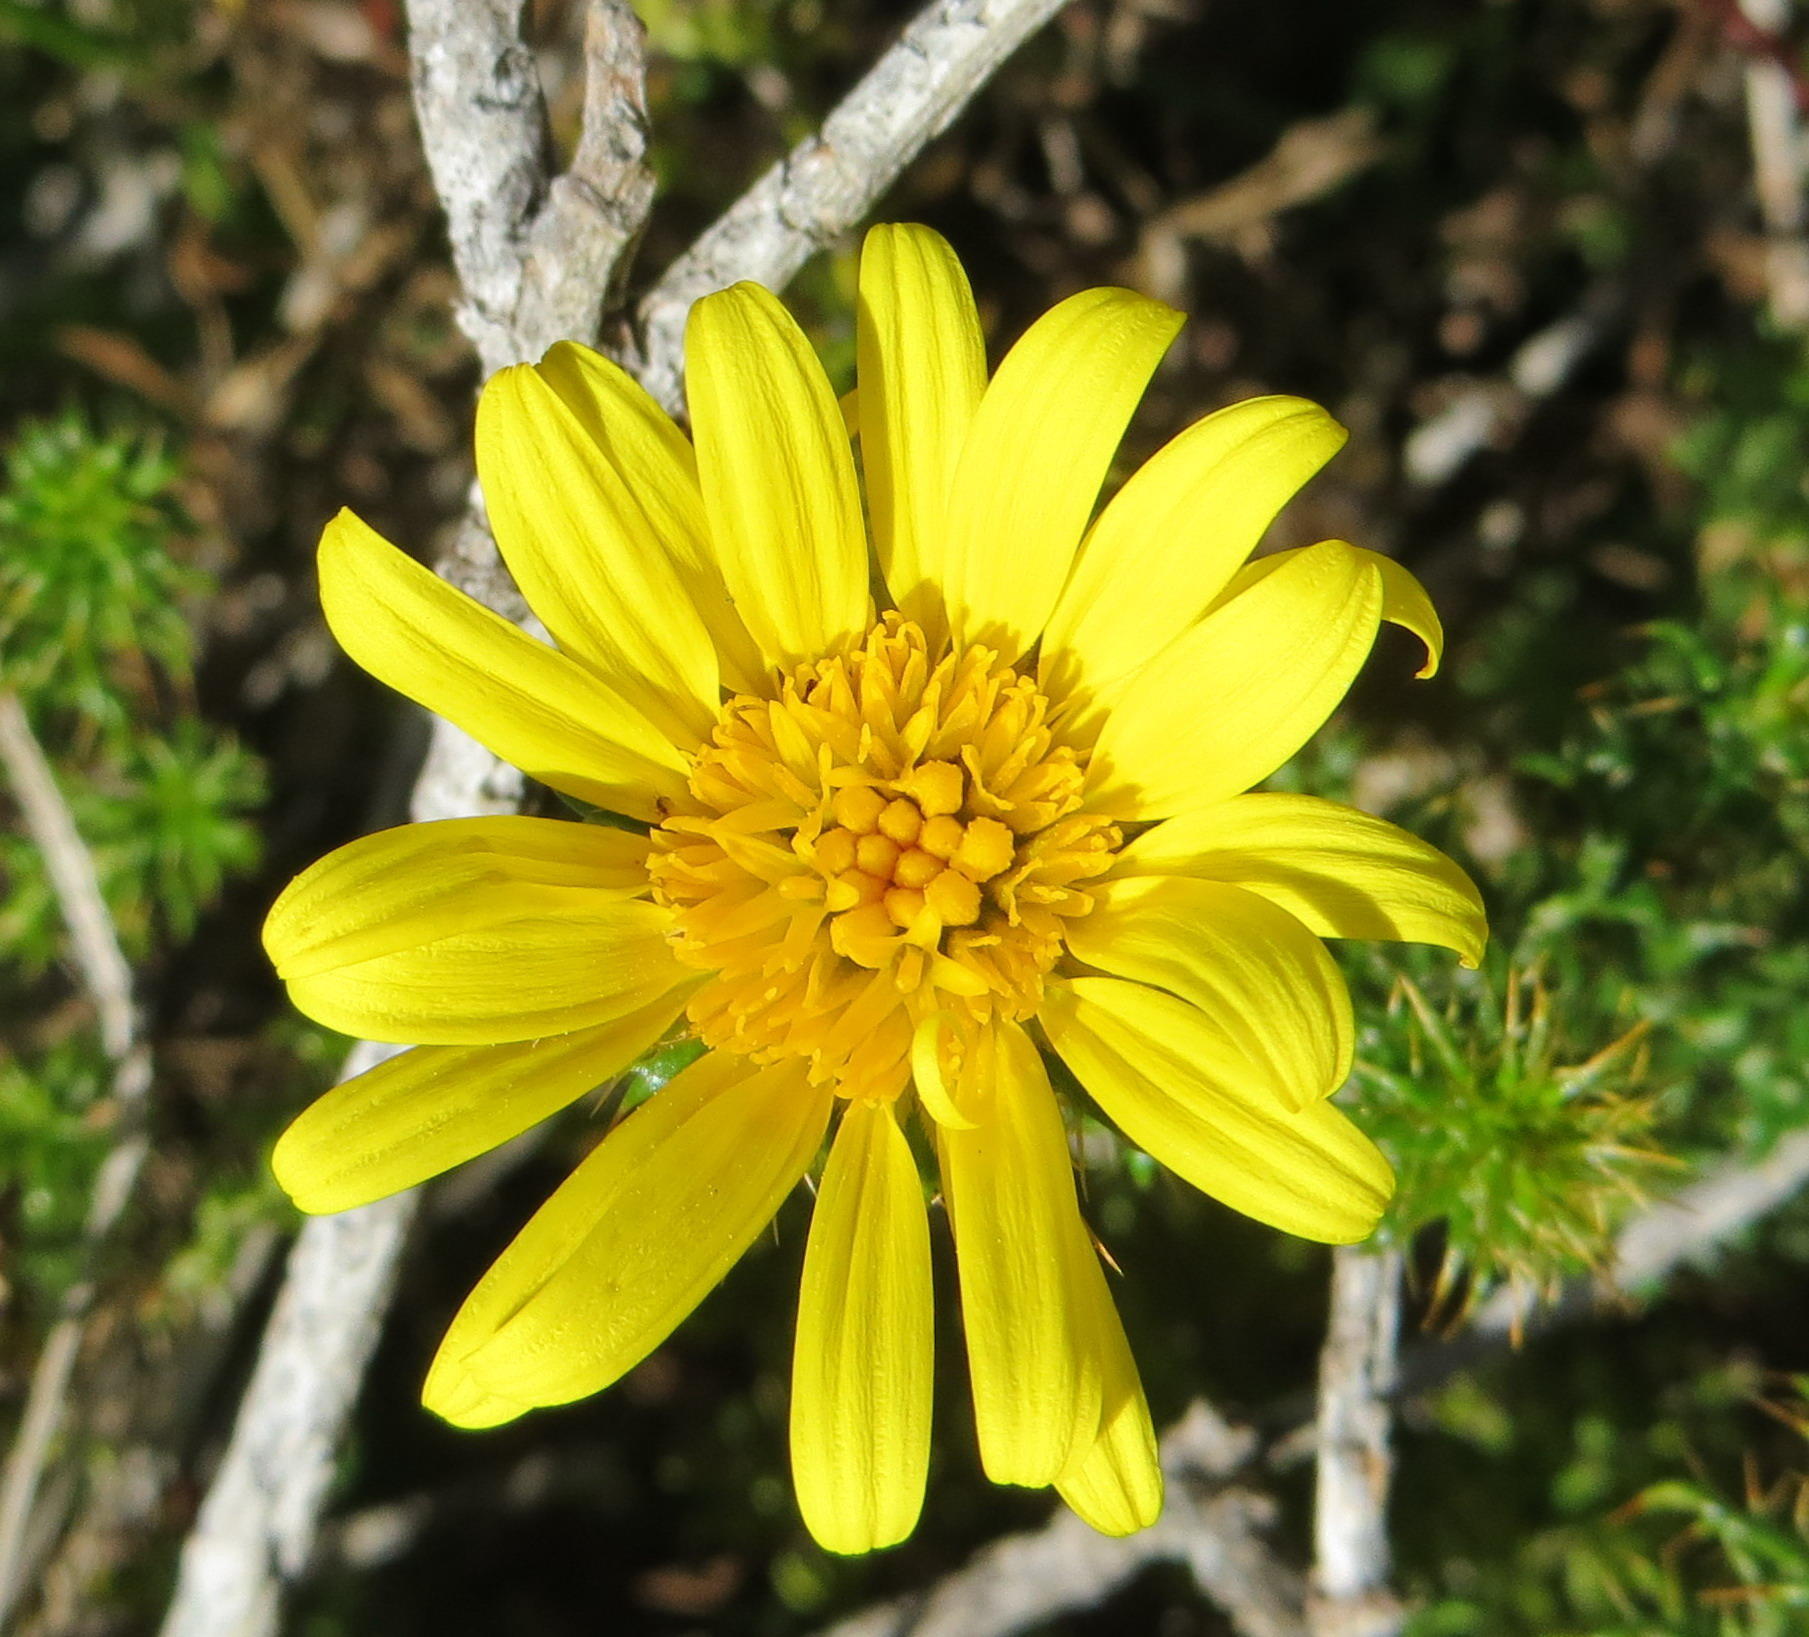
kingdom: Plantae
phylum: Tracheophyta
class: Magnoliopsida
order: Asterales
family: Asteraceae
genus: Cullumia
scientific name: Cullumia decurrens
